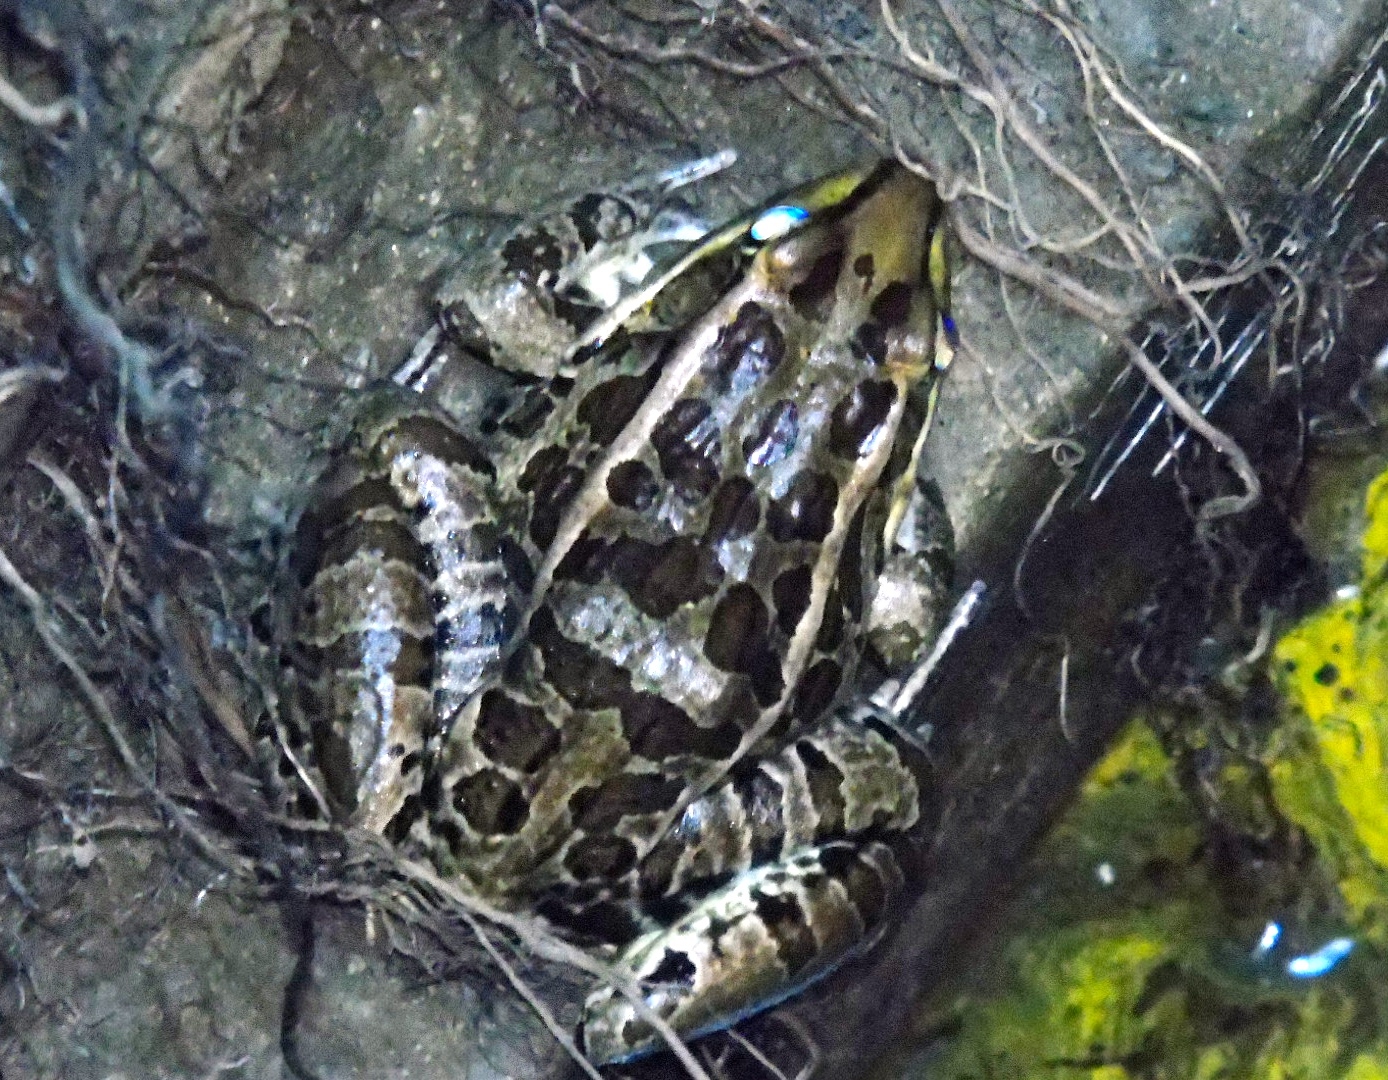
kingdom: Animalia
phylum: Chordata
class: Amphibia
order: Anura
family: Ranidae
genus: Lithobates
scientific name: Lithobates magnaocularis
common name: Northwest mexico leopard frog
